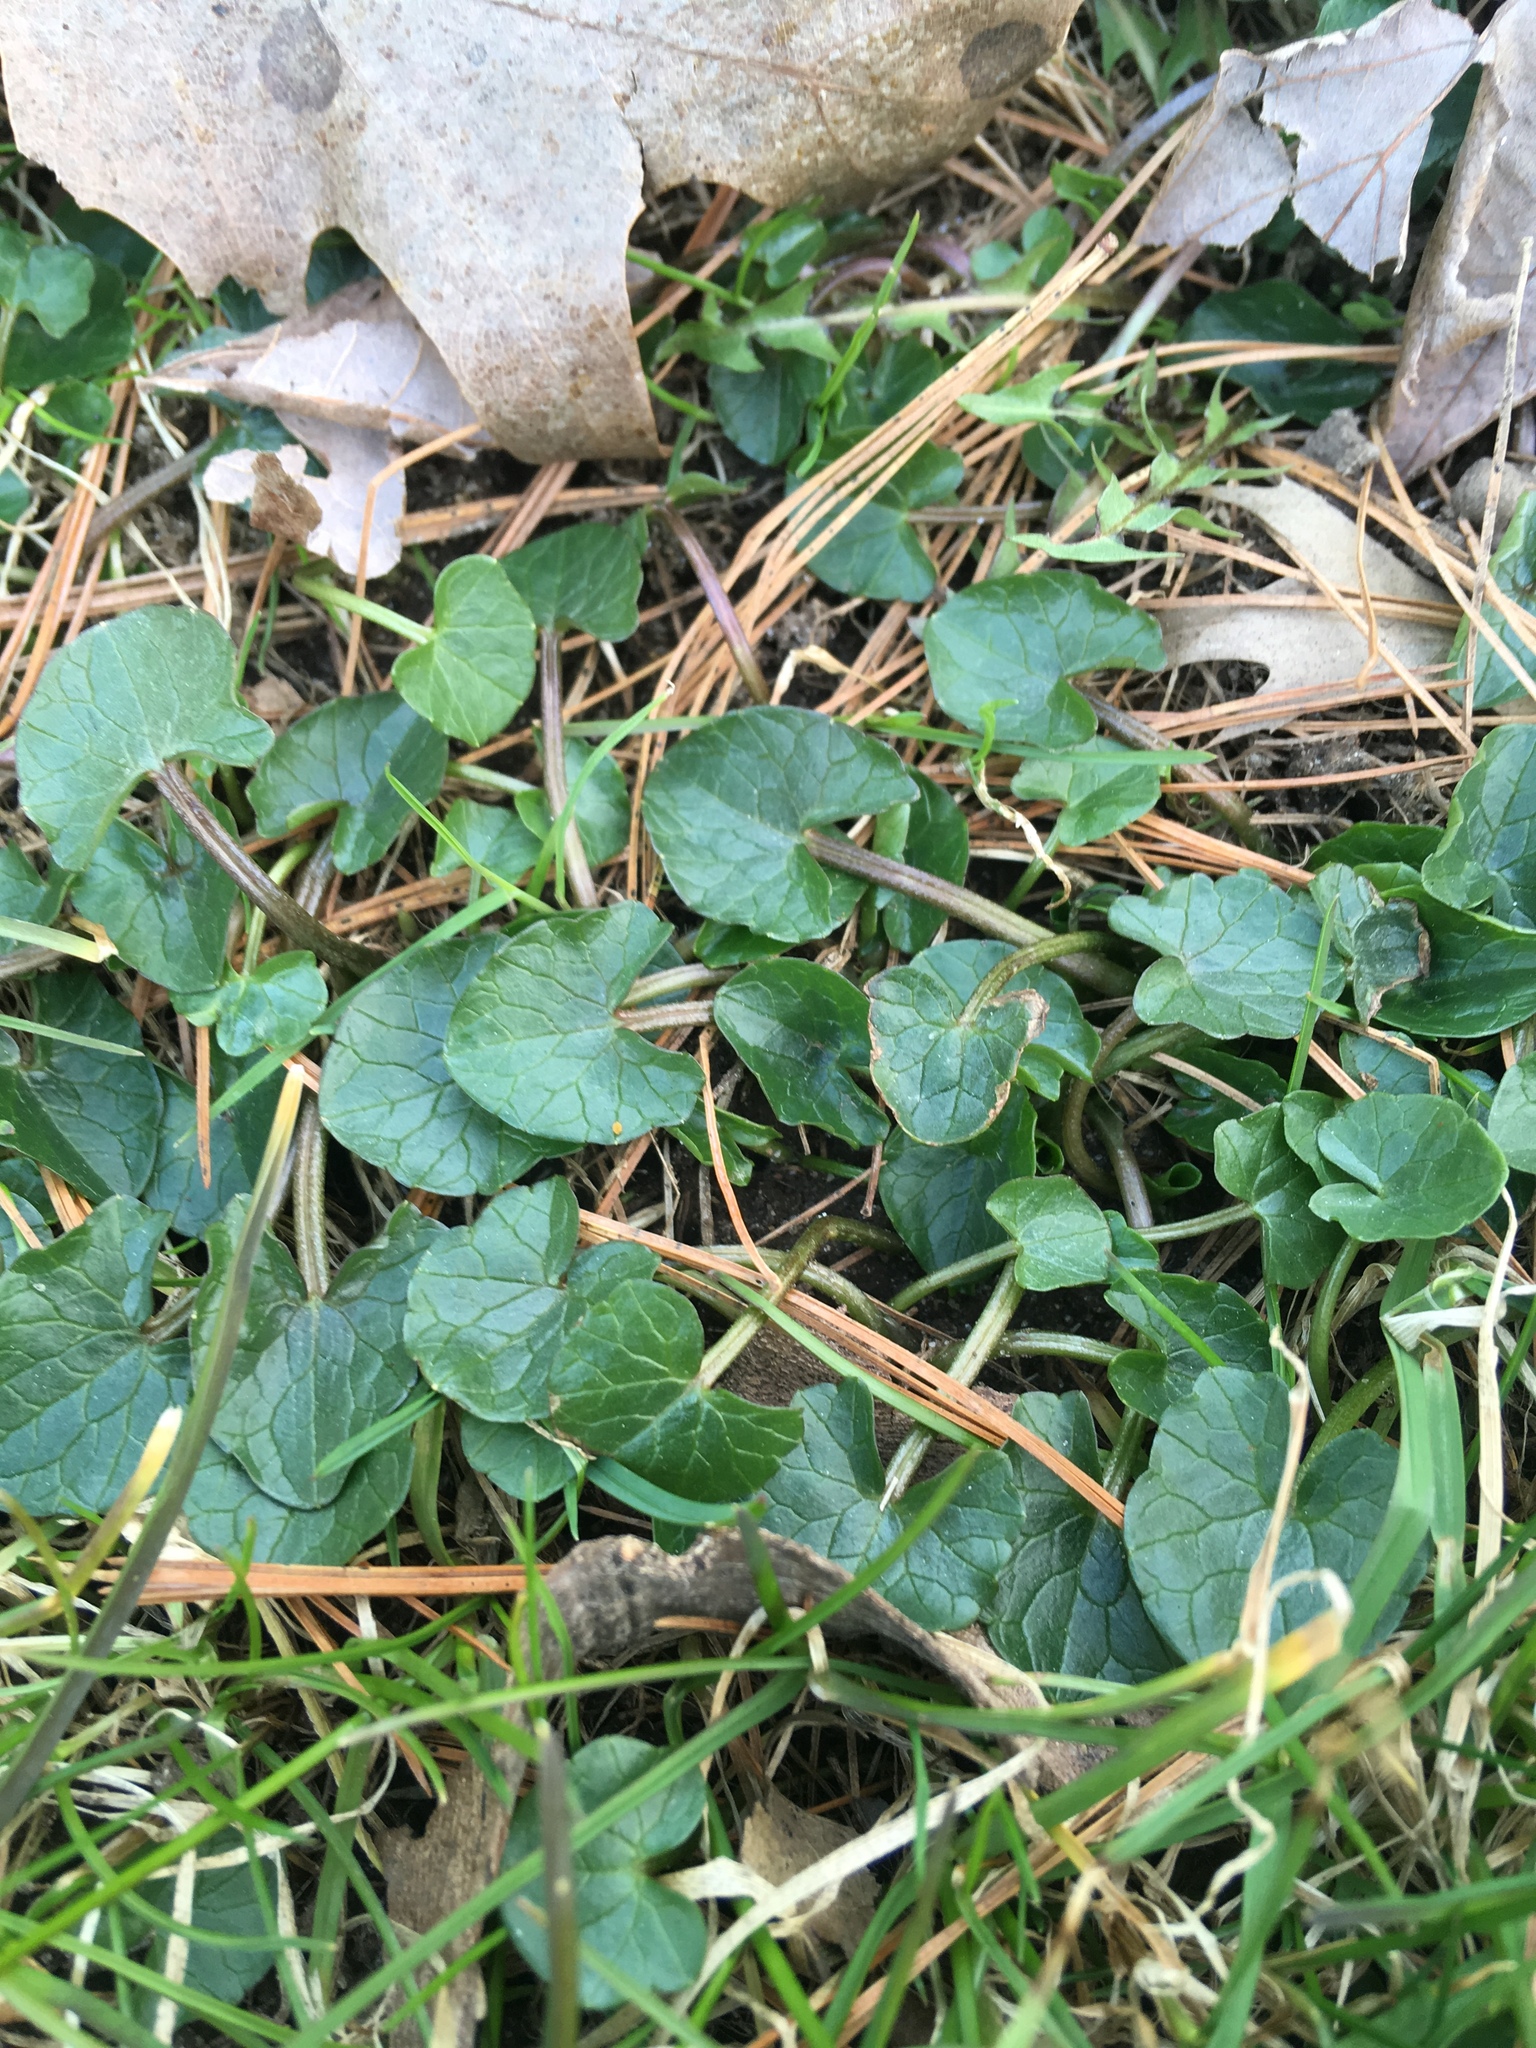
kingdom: Plantae
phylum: Tracheophyta
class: Magnoliopsida
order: Ranunculales
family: Ranunculaceae
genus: Ficaria
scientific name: Ficaria verna
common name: Lesser celandine
